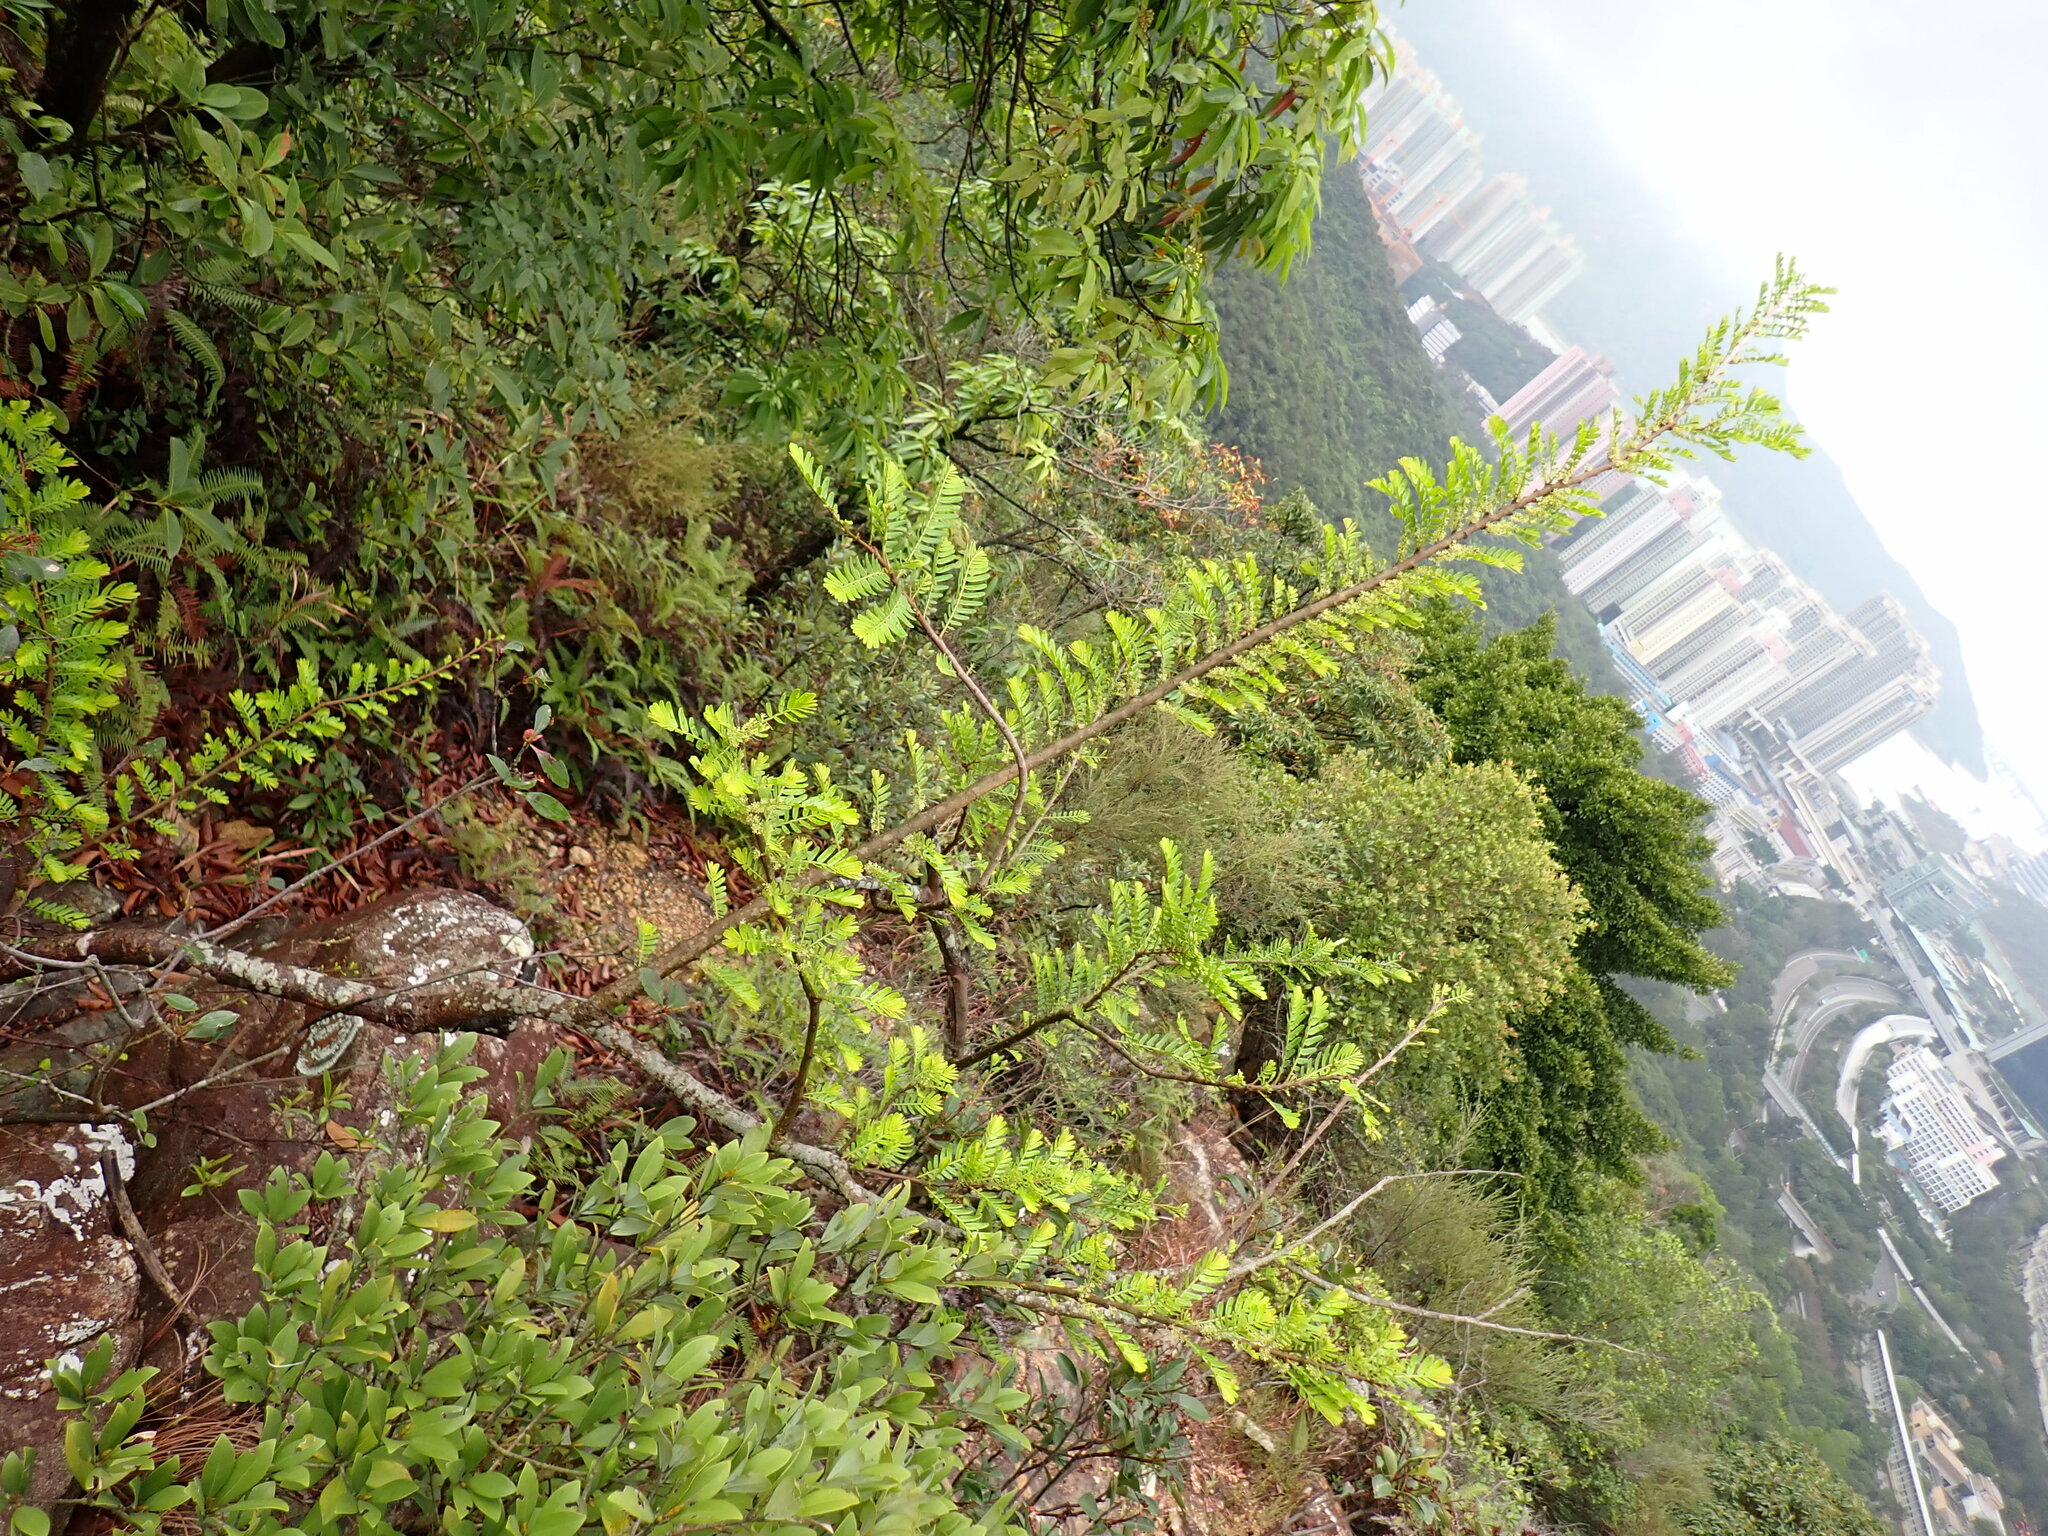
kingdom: Plantae
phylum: Tracheophyta
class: Magnoliopsida
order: Malpighiales
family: Phyllanthaceae
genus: Phyllanthus
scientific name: Phyllanthus emblica
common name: Indian gooseberry
